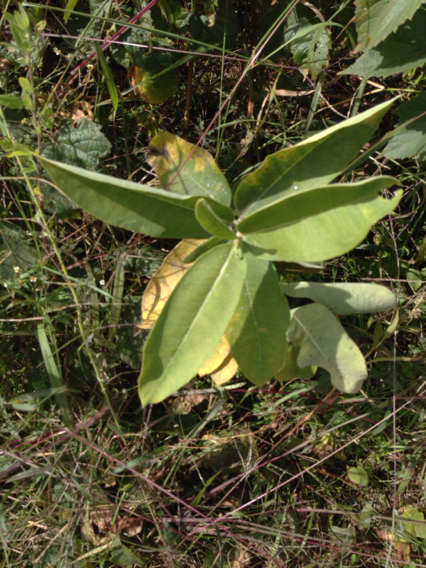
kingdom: Plantae
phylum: Tracheophyta
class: Magnoliopsida
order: Gentianales
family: Apocynaceae
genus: Asclepias
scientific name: Asclepias syriaca
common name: Common milkweed
